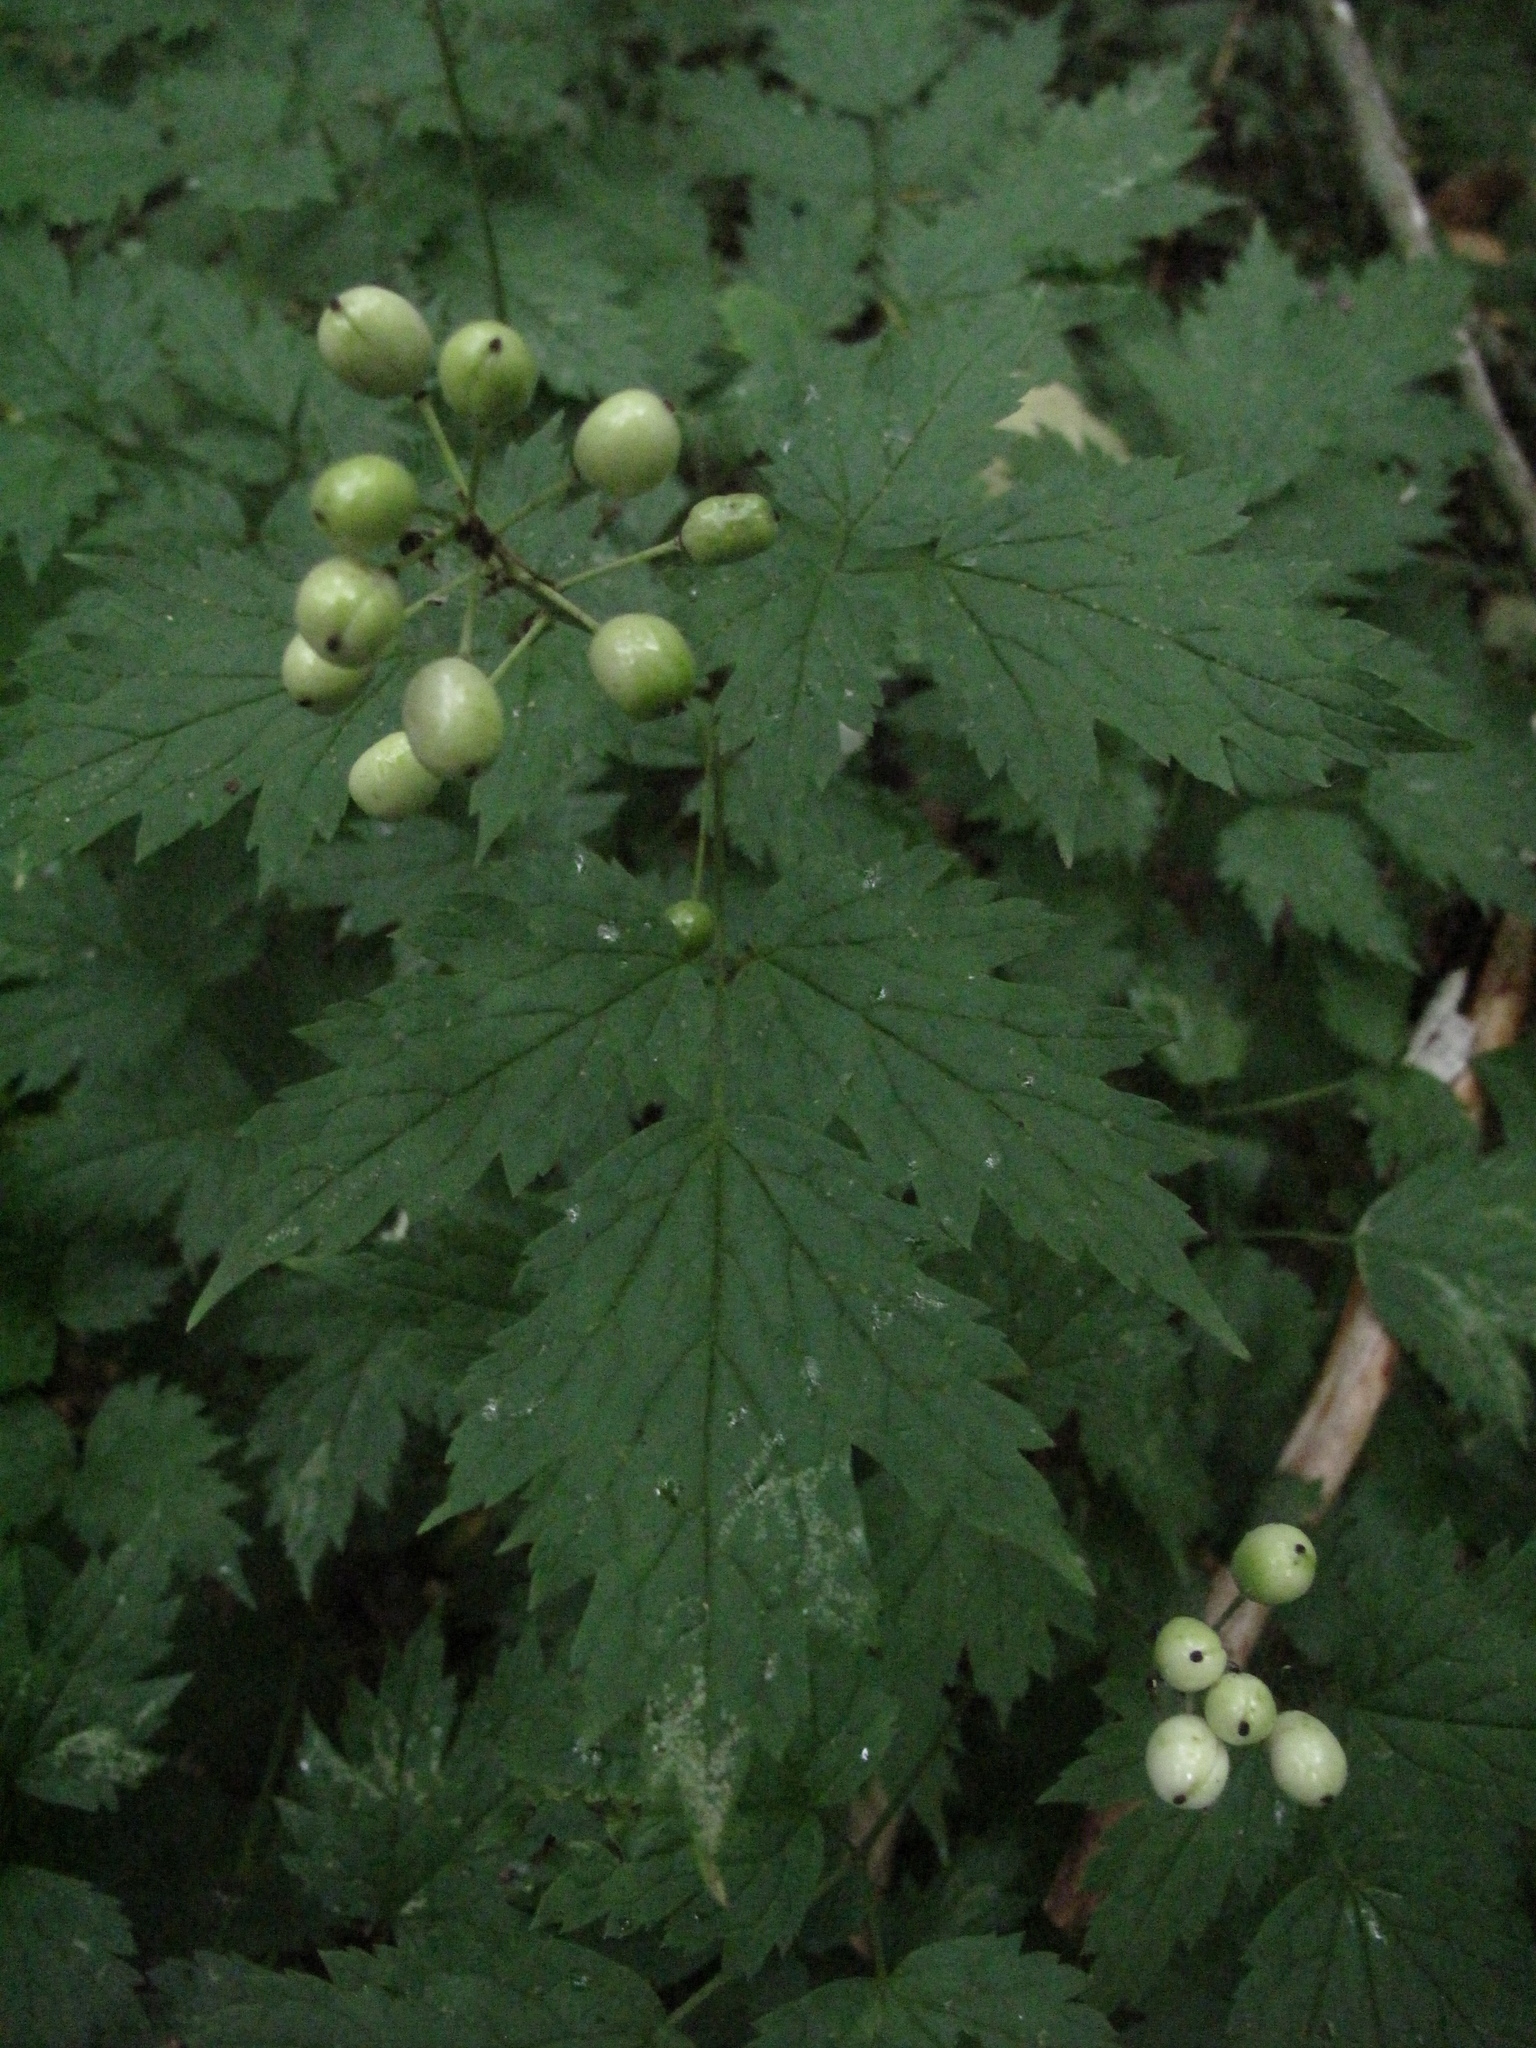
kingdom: Plantae
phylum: Tracheophyta
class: Magnoliopsida
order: Ranunculales
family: Ranunculaceae
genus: Actaea
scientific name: Actaea rubra
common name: Red baneberry
